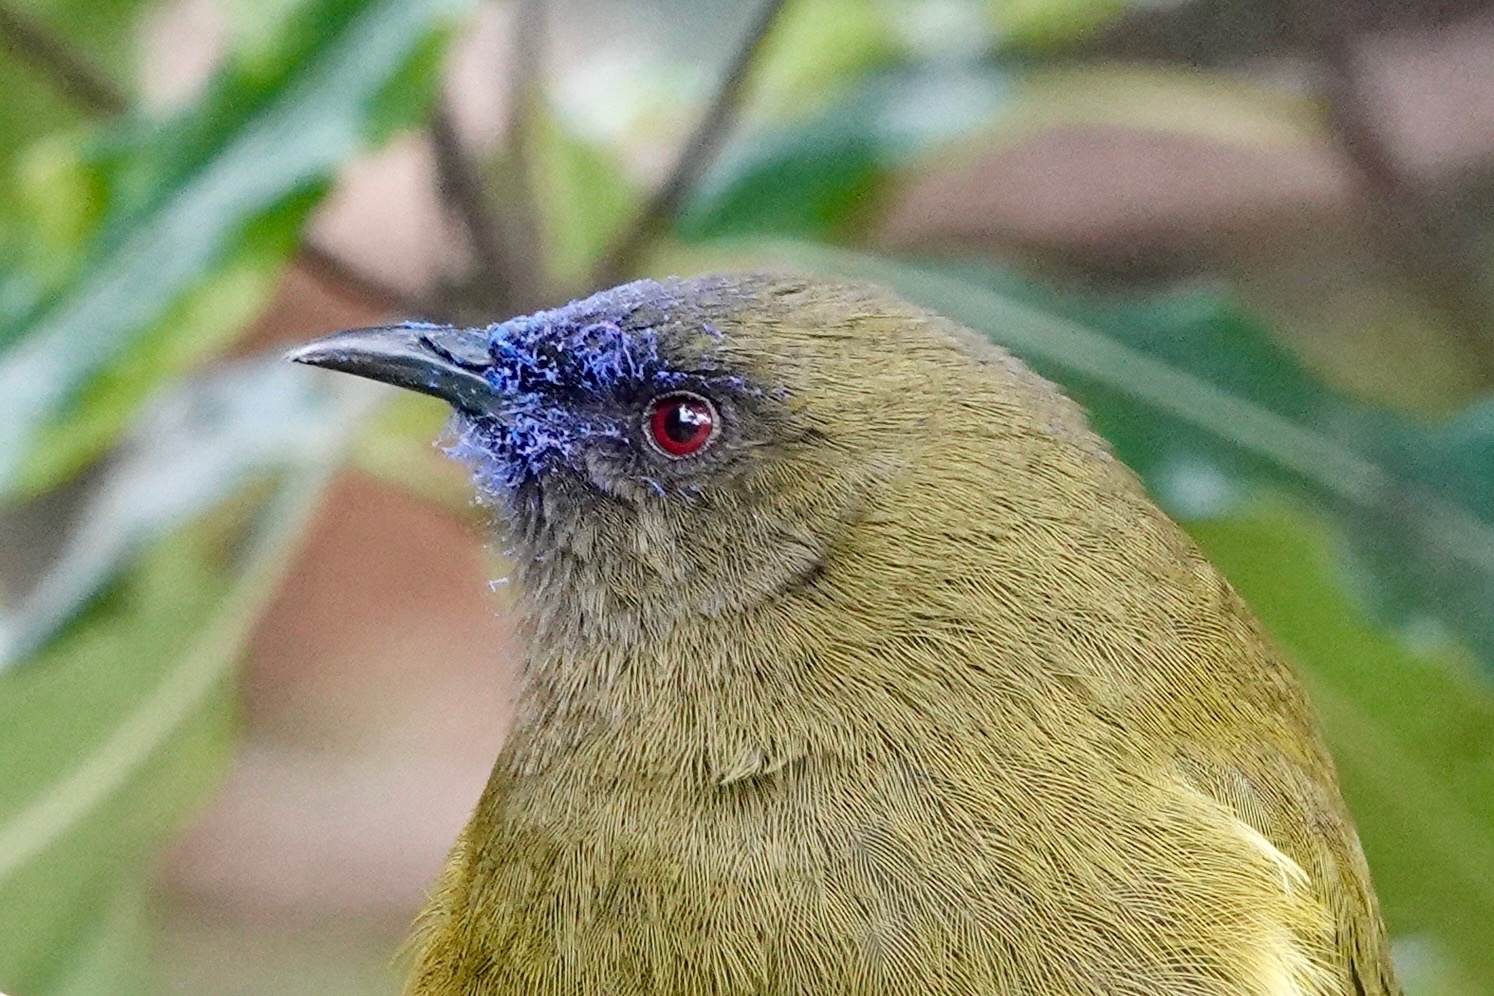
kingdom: Animalia
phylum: Chordata
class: Aves
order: Passeriformes
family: Meliphagidae
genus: Anthornis
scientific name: Anthornis melanura
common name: New zealand bellbird
